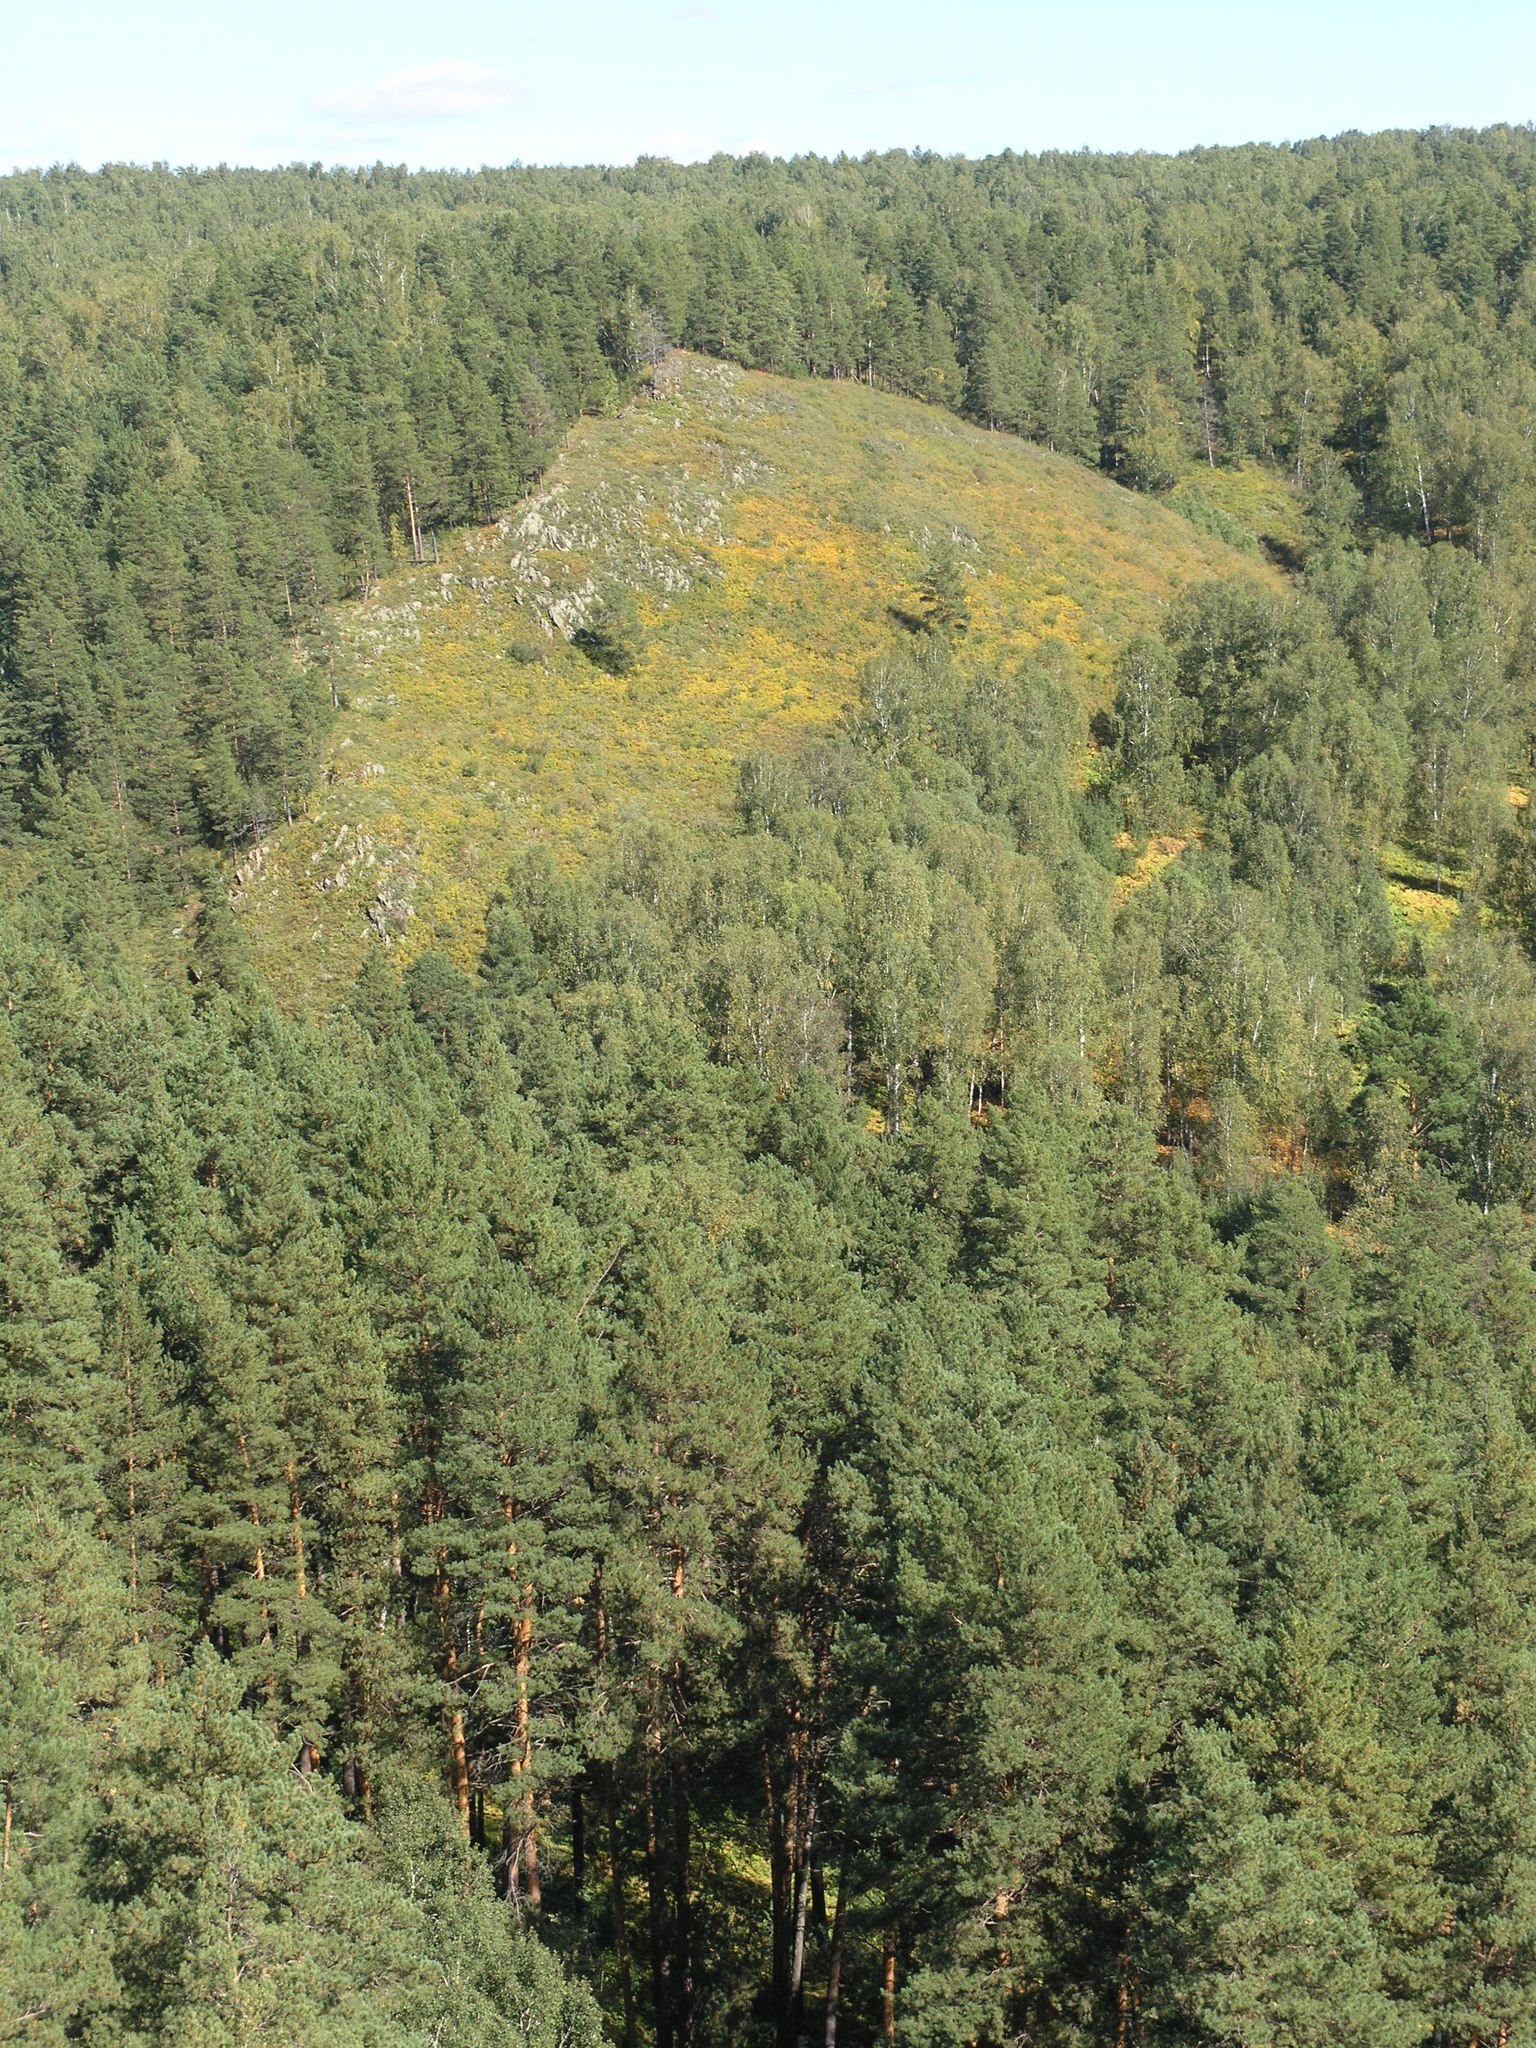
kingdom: Plantae
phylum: Tracheophyta
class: Pinopsida
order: Pinales
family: Pinaceae
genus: Pinus
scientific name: Pinus sylvestris
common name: Scots pine
